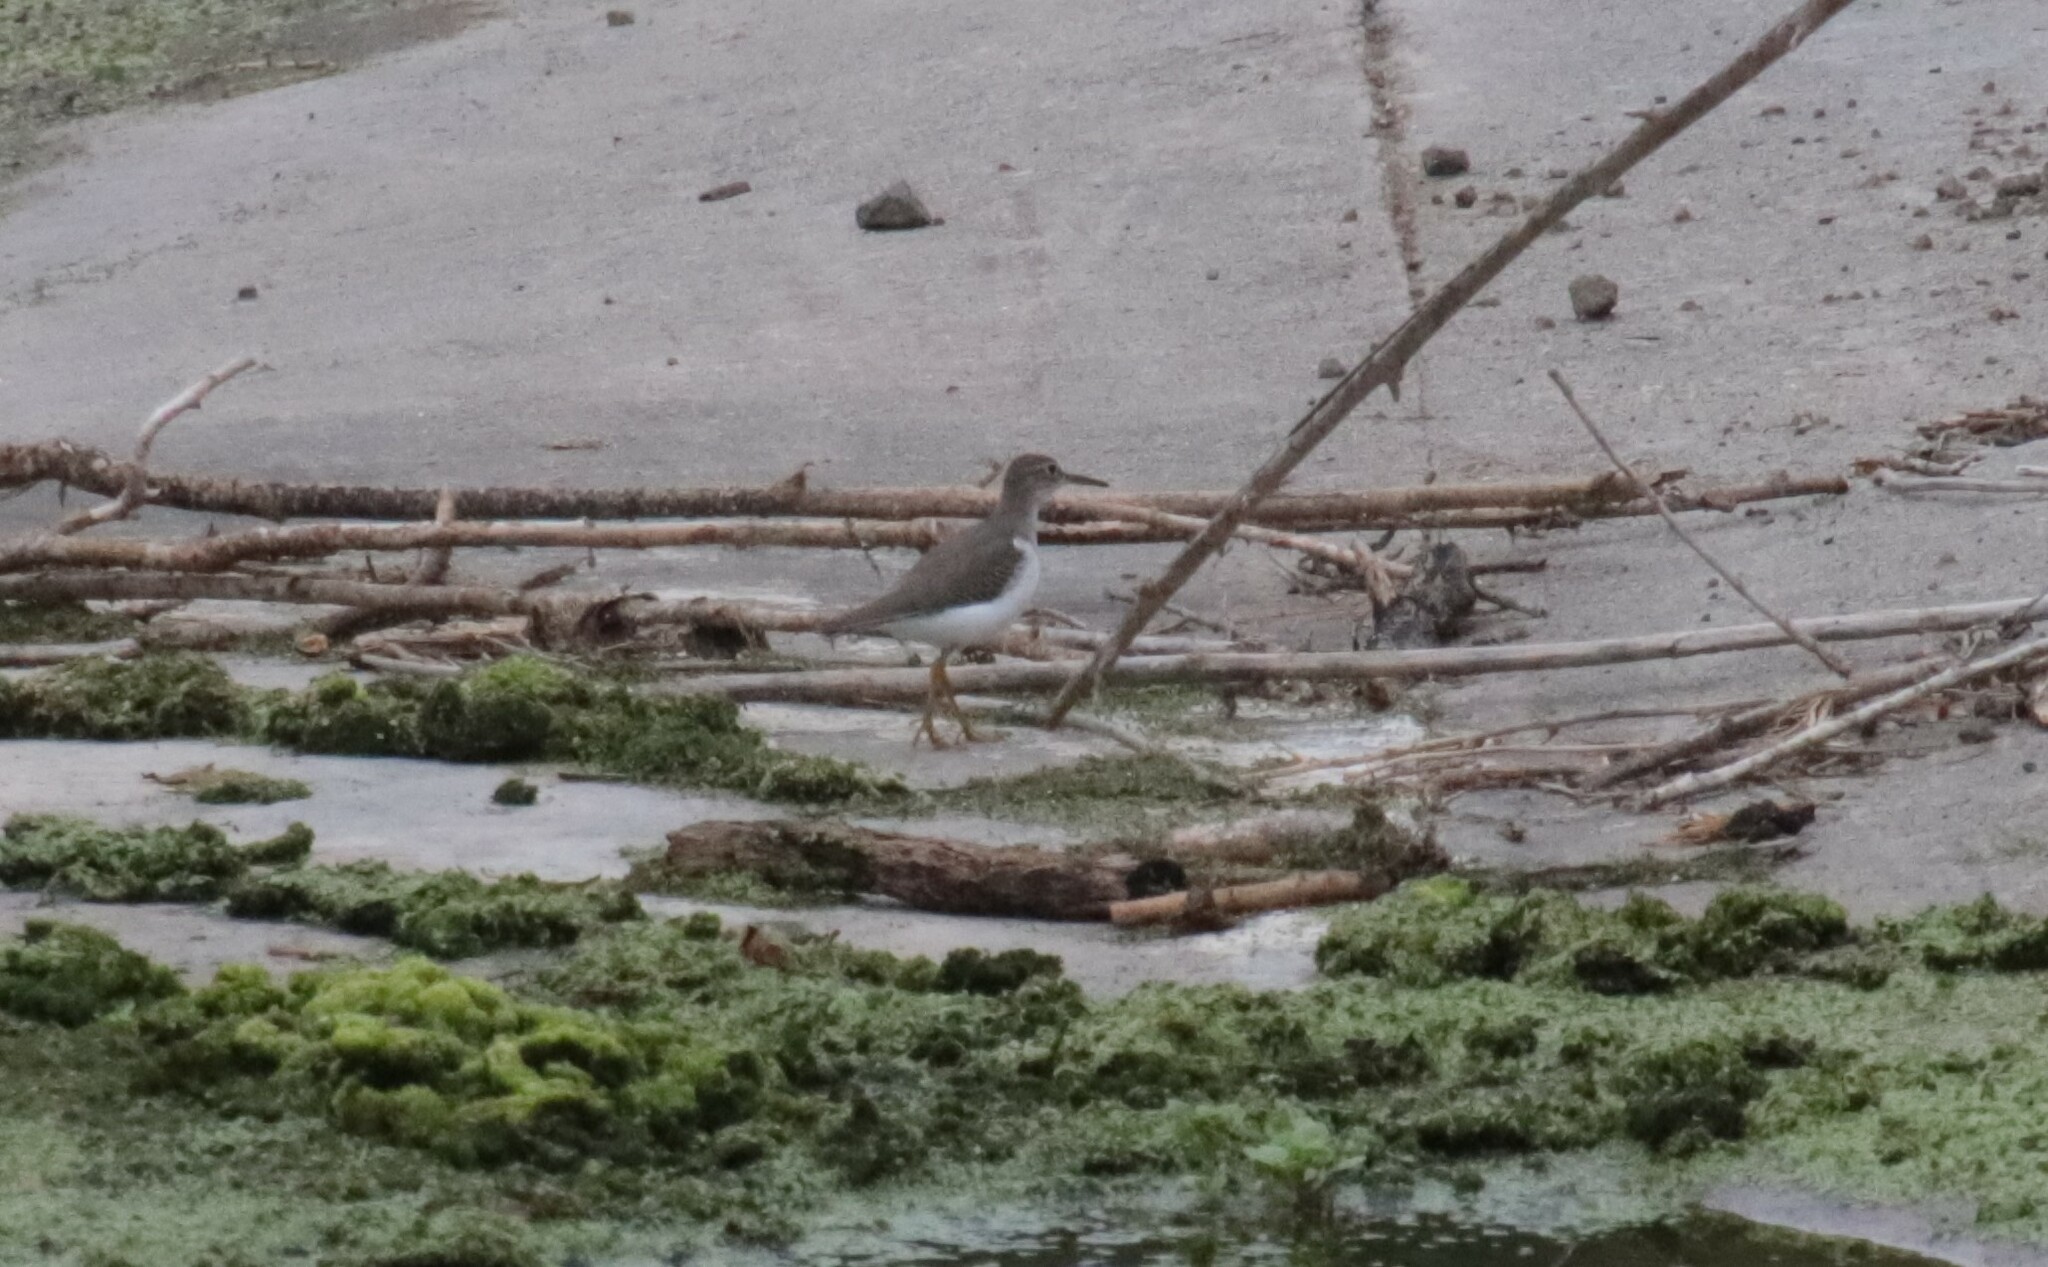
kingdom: Animalia
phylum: Chordata
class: Aves
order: Charadriiformes
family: Scolopacidae
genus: Actitis
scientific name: Actitis macularius
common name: Spotted sandpiper
